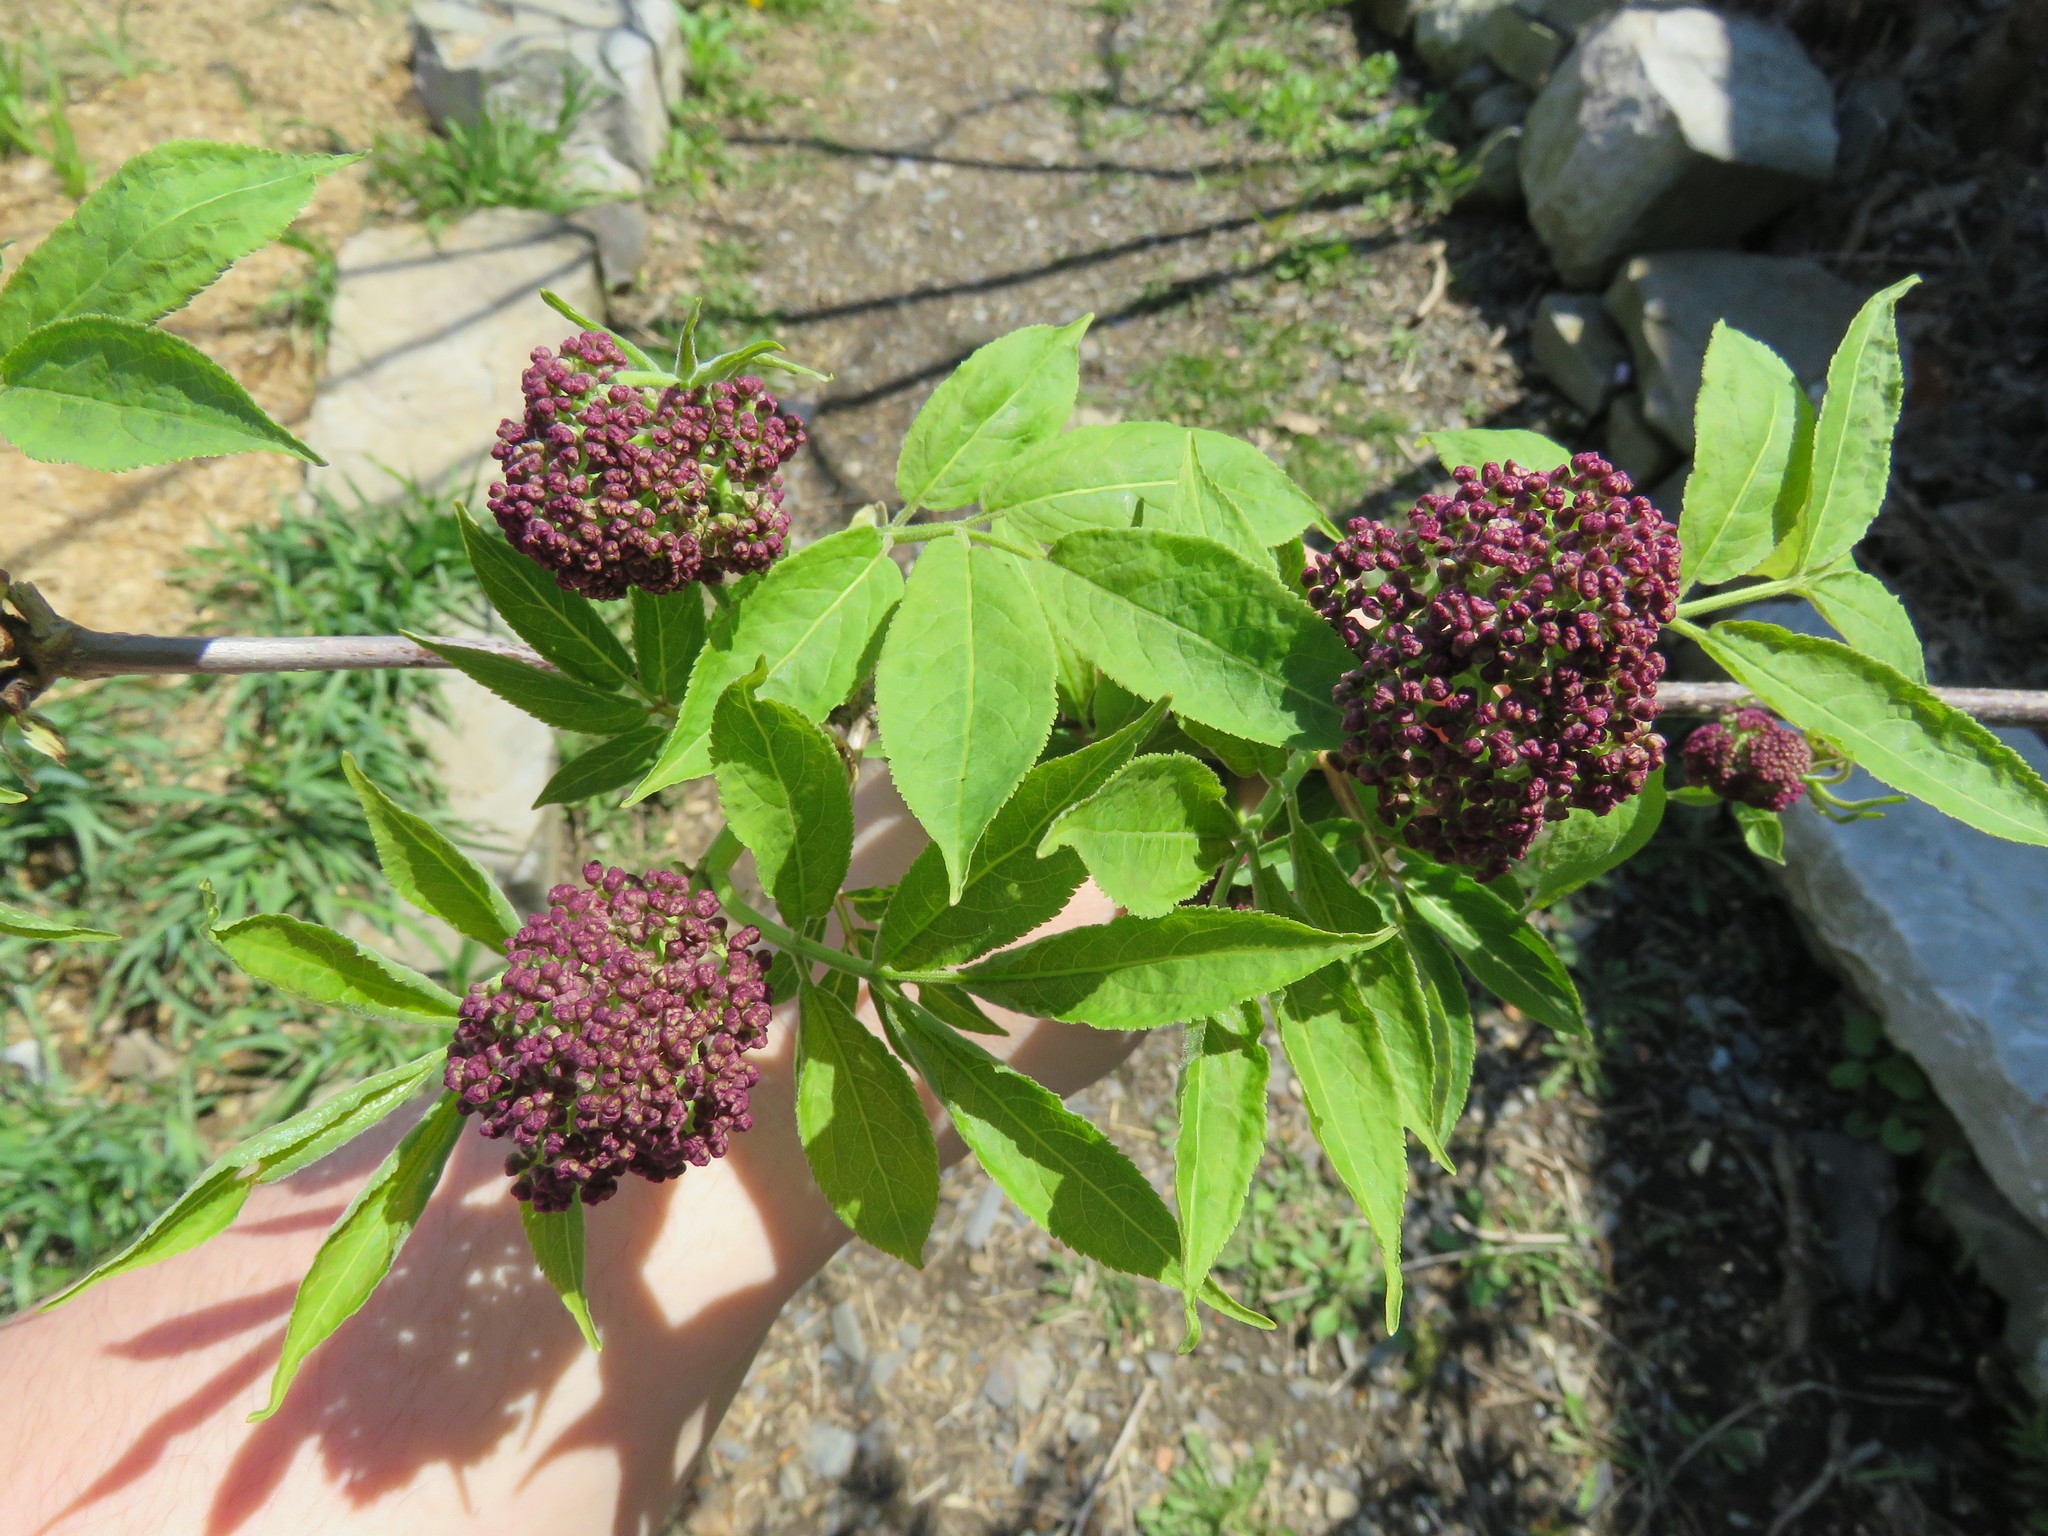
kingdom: Plantae
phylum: Tracheophyta
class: Magnoliopsida
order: Dipsacales
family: Viburnaceae
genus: Sambucus
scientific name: Sambucus racemosa
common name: Red-berried elder
